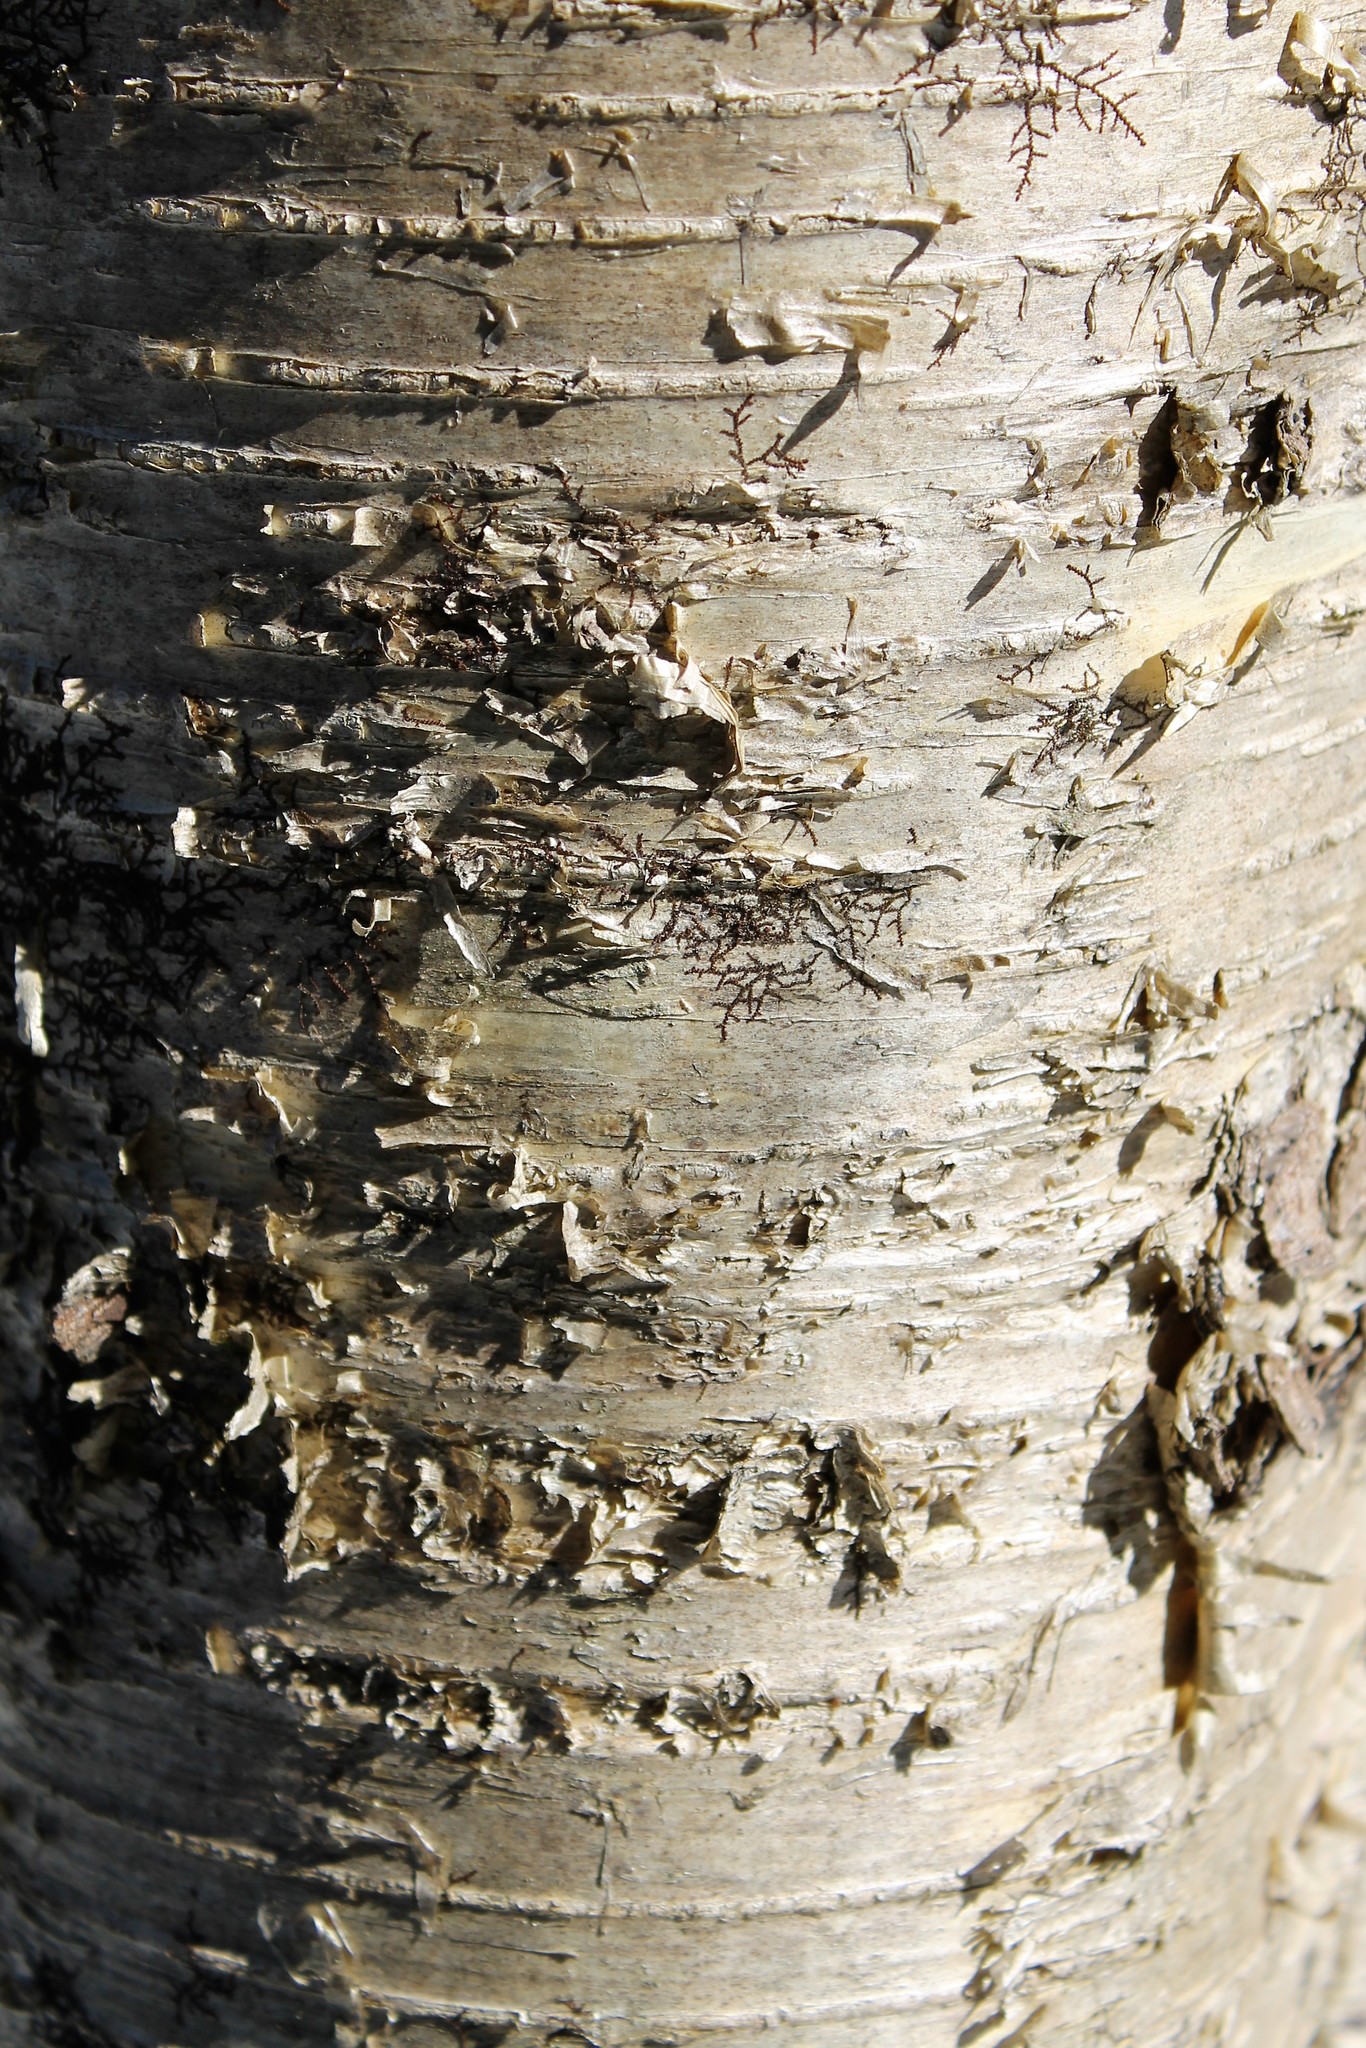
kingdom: Plantae
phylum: Tracheophyta
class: Magnoliopsida
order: Fagales
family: Betulaceae
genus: Betula
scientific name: Betula alleghaniensis
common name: Yellow birch
